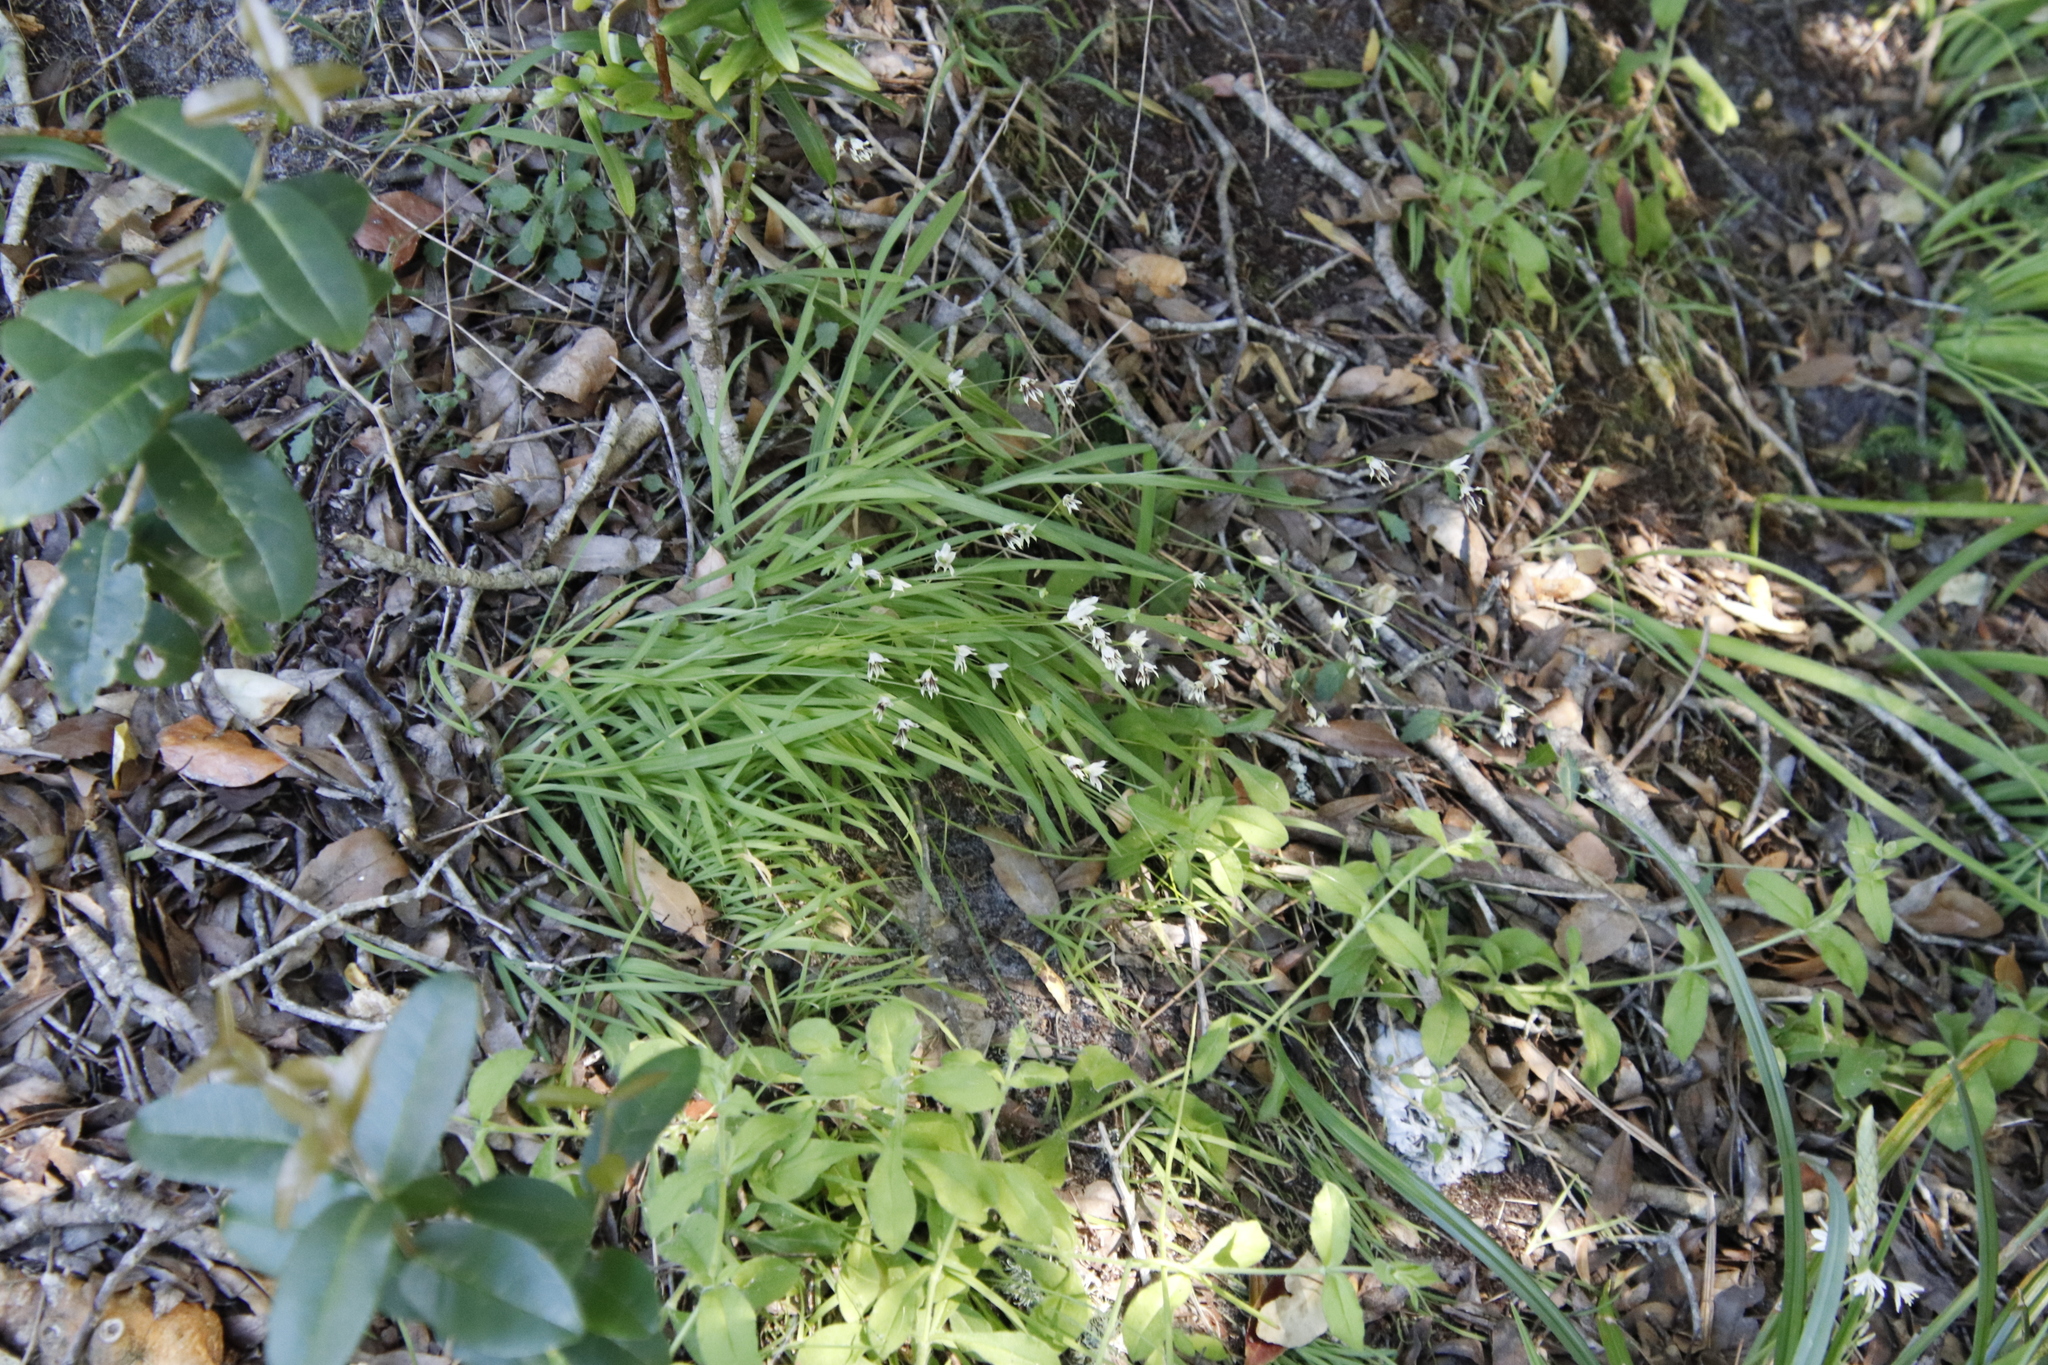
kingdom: Plantae
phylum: Tracheophyta
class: Liliopsida
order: Asparagales
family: Iridaceae
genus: Melasphaerula
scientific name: Melasphaerula graminea
